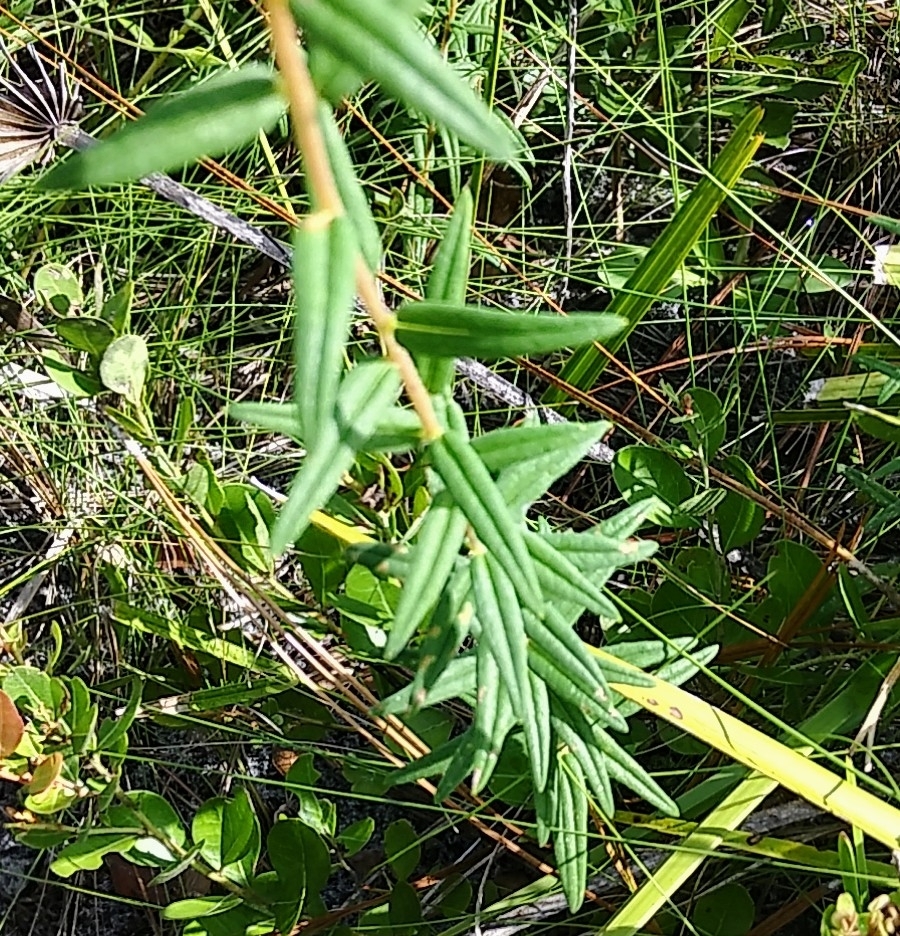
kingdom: Plantae
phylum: Tracheophyta
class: Magnoliopsida
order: Asterales
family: Asteraceae
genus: Phoebanthus
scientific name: Phoebanthus grandiflora
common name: Florida false sunflower
